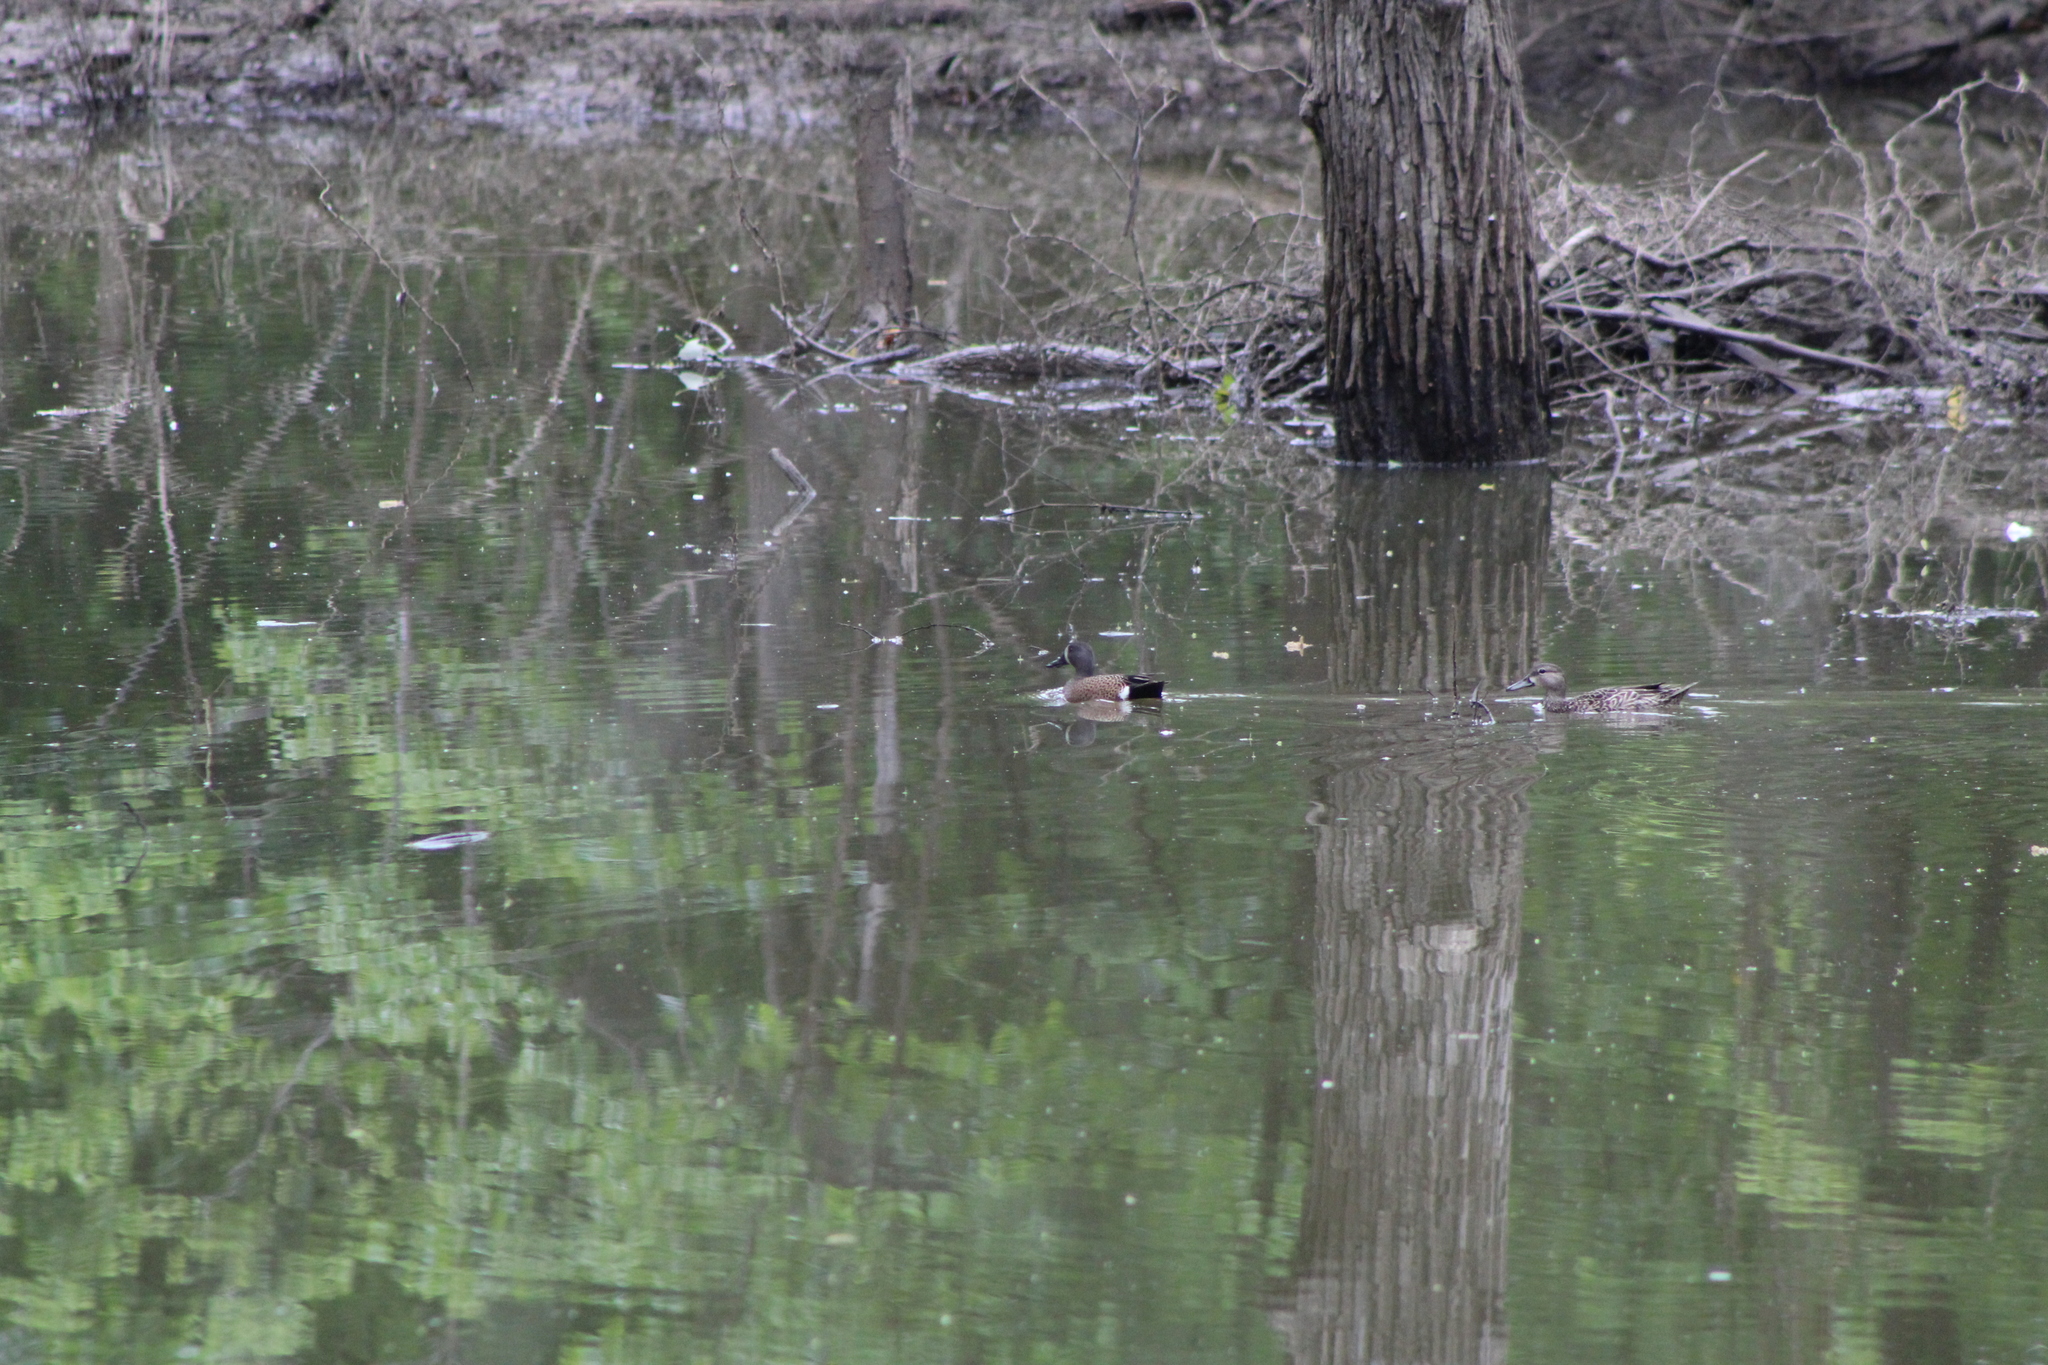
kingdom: Animalia
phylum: Chordata
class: Aves
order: Anseriformes
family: Anatidae
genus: Spatula
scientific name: Spatula discors
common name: Blue-winged teal
